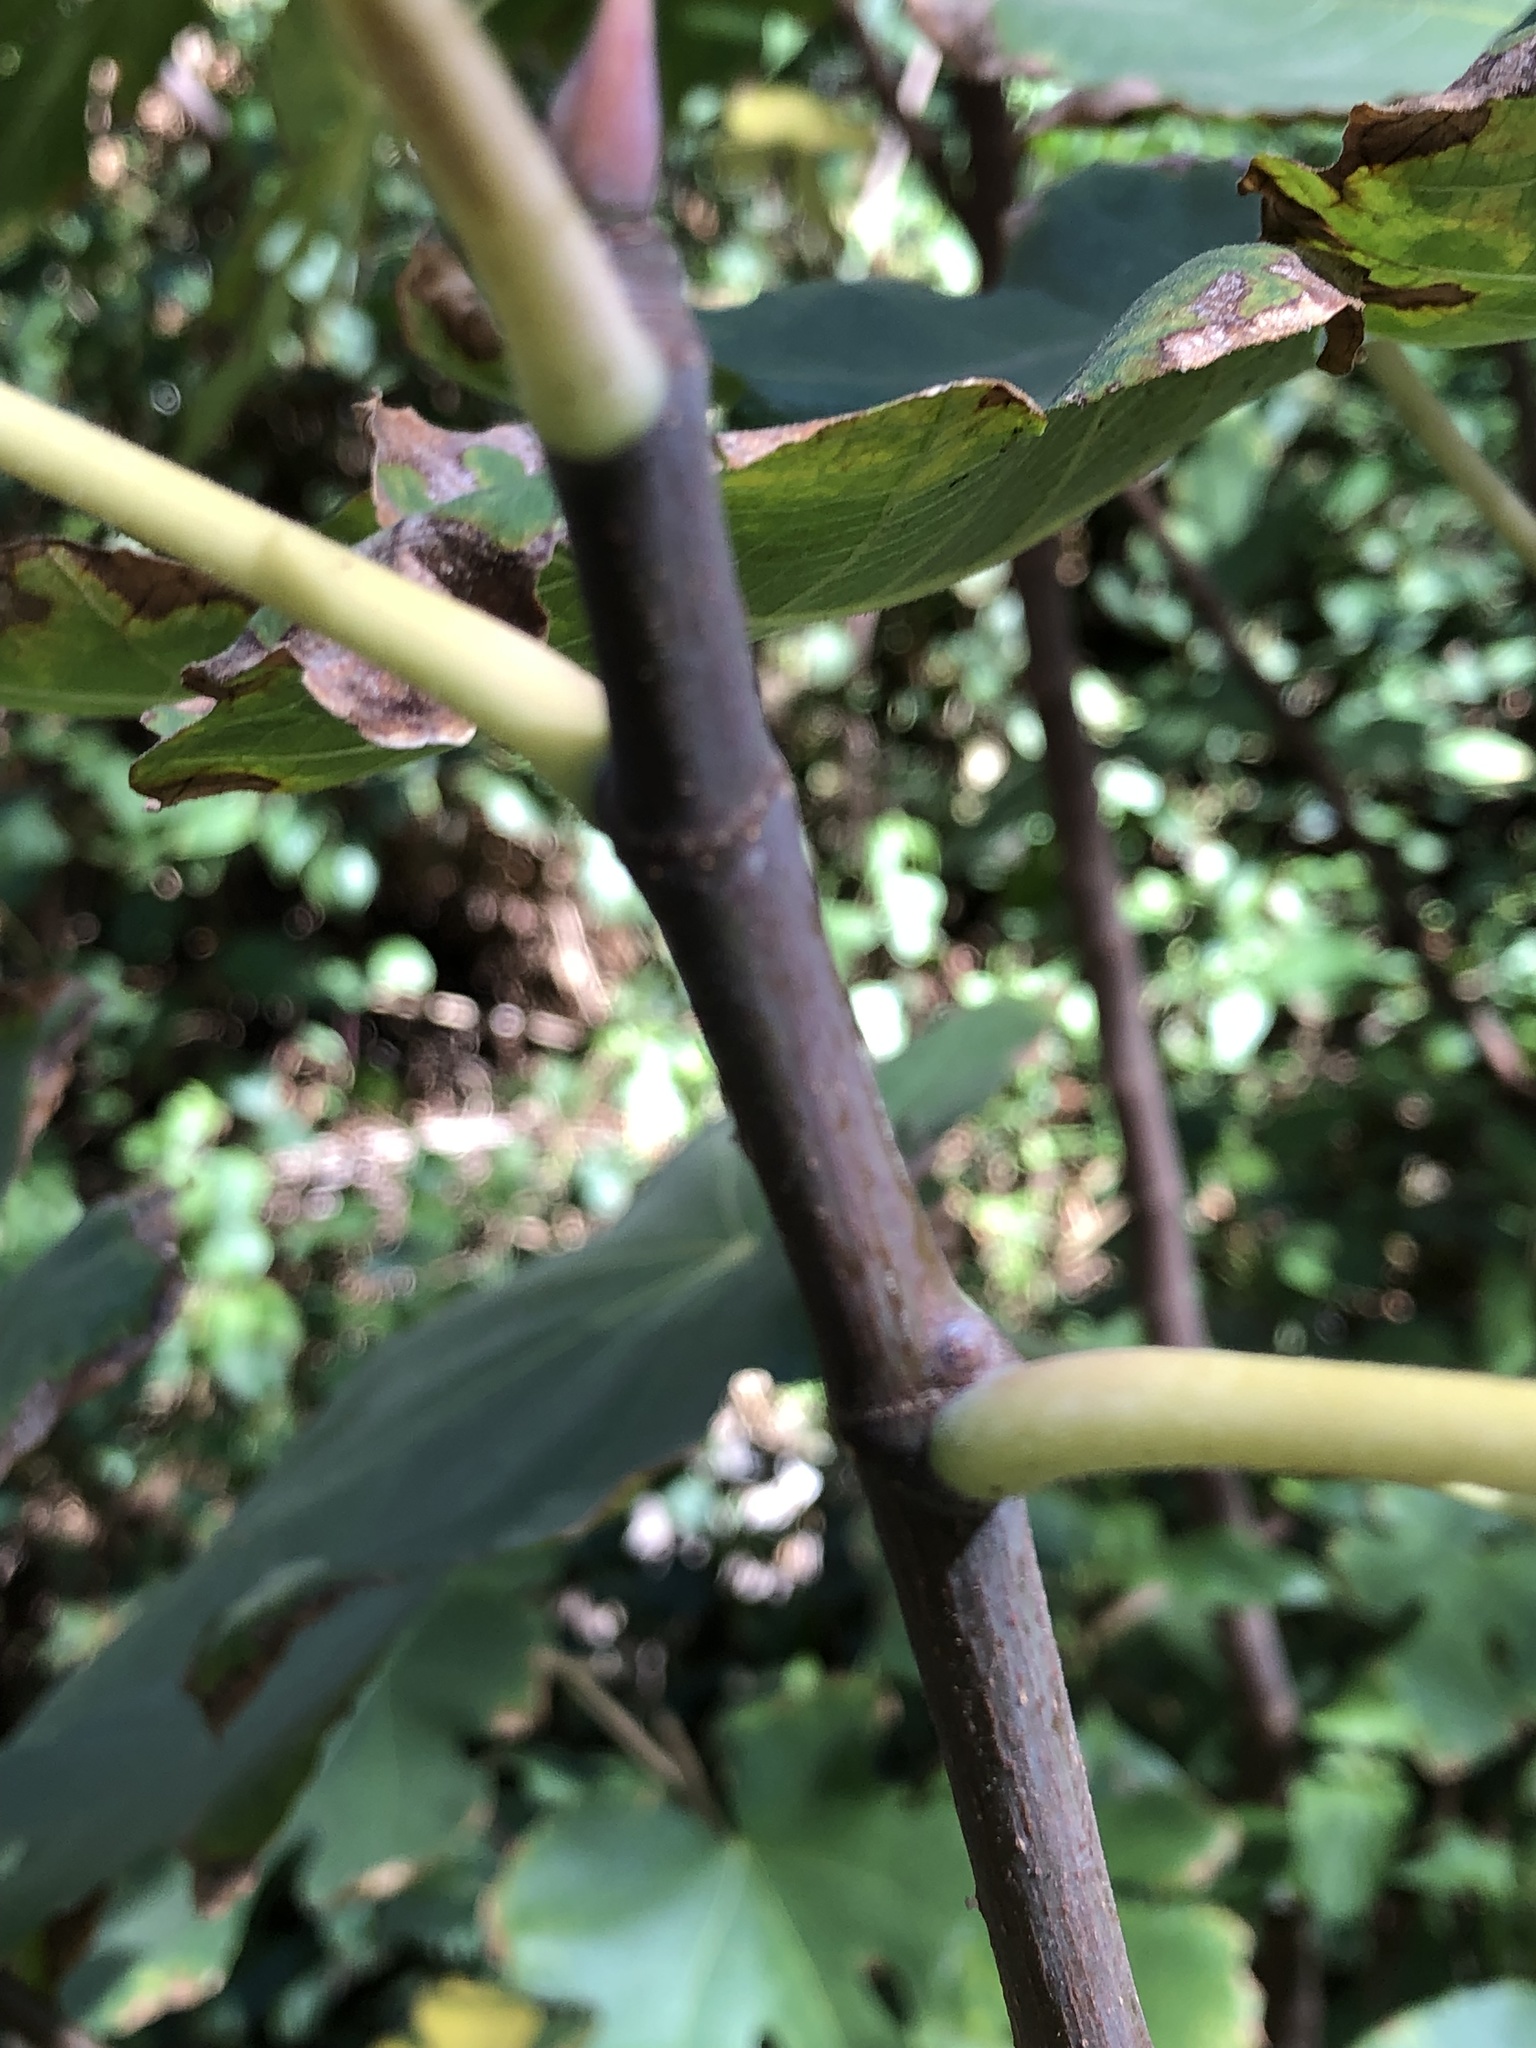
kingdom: Plantae
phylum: Tracheophyta
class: Magnoliopsida
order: Rosales
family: Moraceae
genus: Ficus
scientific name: Ficus carica
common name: Fig
